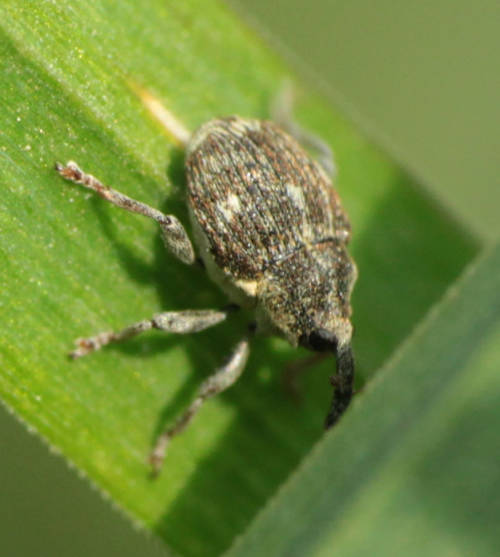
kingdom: Animalia
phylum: Arthropoda
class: Insecta
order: Coleoptera
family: Curculionidae
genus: Nedyus
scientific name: Nedyus quadrimaculatus
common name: Small nettle weevil
